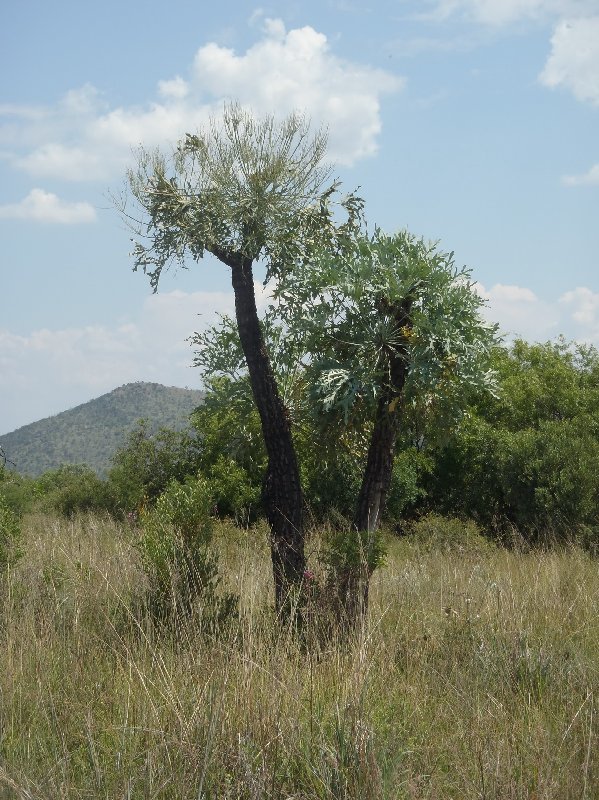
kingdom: Plantae
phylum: Tracheophyta
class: Magnoliopsida
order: Apiales
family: Araliaceae
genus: Cussonia
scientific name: Cussonia paniculata
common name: Cabbagetree
